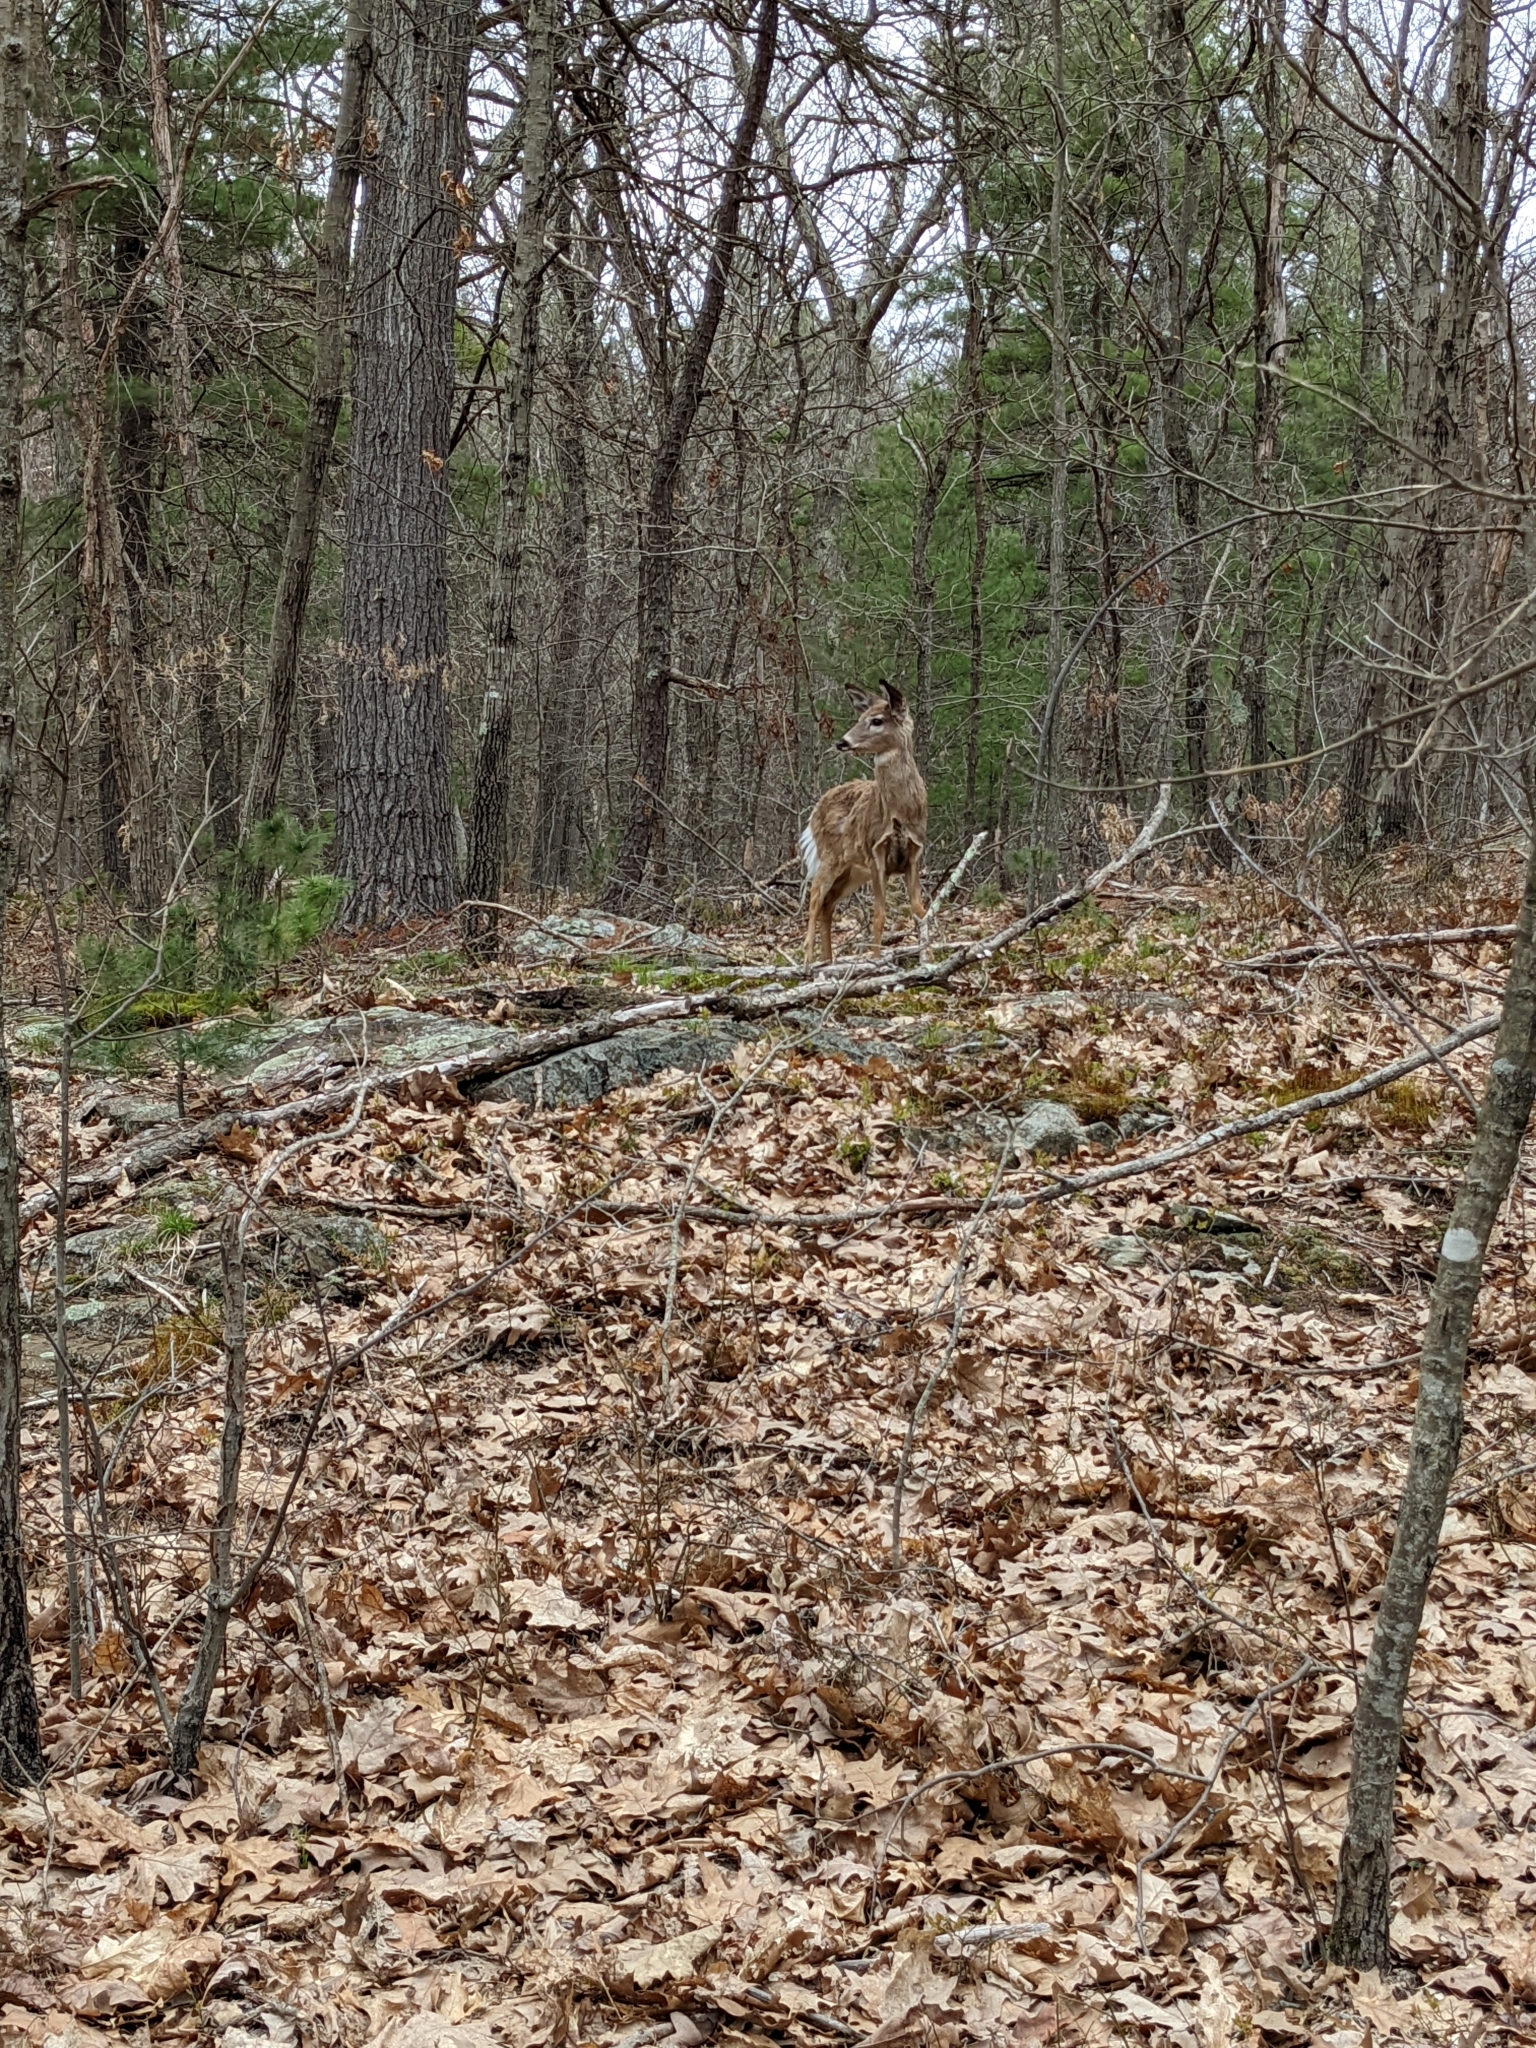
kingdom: Animalia
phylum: Chordata
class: Mammalia
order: Artiodactyla
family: Cervidae
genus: Odocoileus
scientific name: Odocoileus virginianus
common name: White-tailed deer
